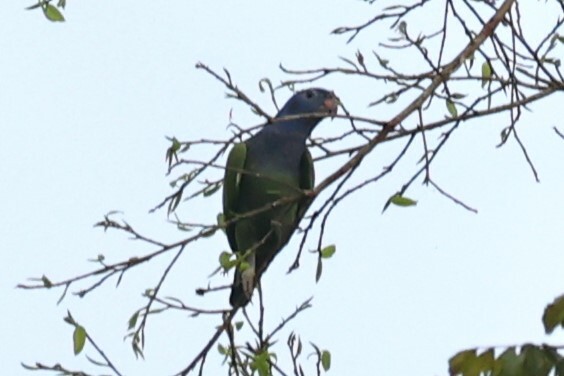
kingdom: Animalia
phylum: Chordata
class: Aves
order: Psittaciformes
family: Psittacidae
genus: Pionus
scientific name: Pionus menstruus
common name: Blue-headed parrot
